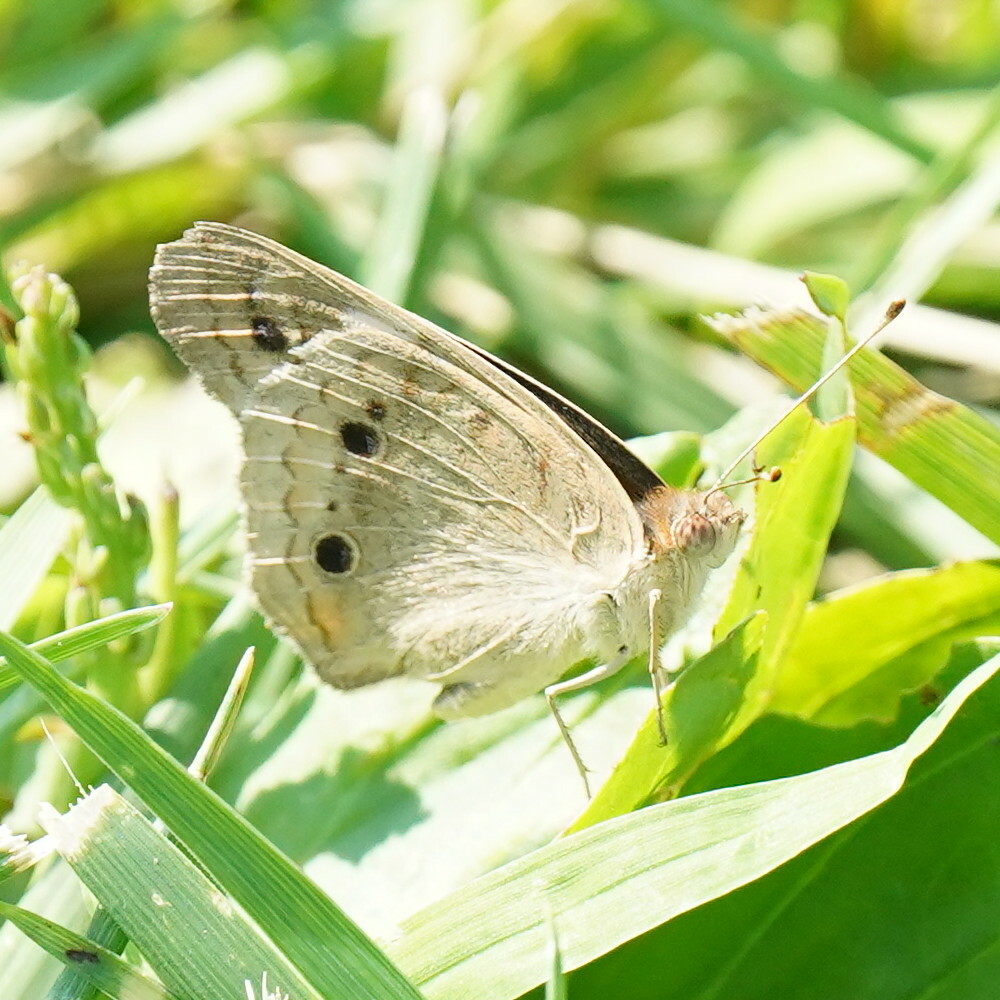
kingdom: Animalia
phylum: Arthropoda
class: Insecta
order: Lepidoptera
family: Nymphalidae
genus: Junonia
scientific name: Junonia coenia
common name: Common buckeye
